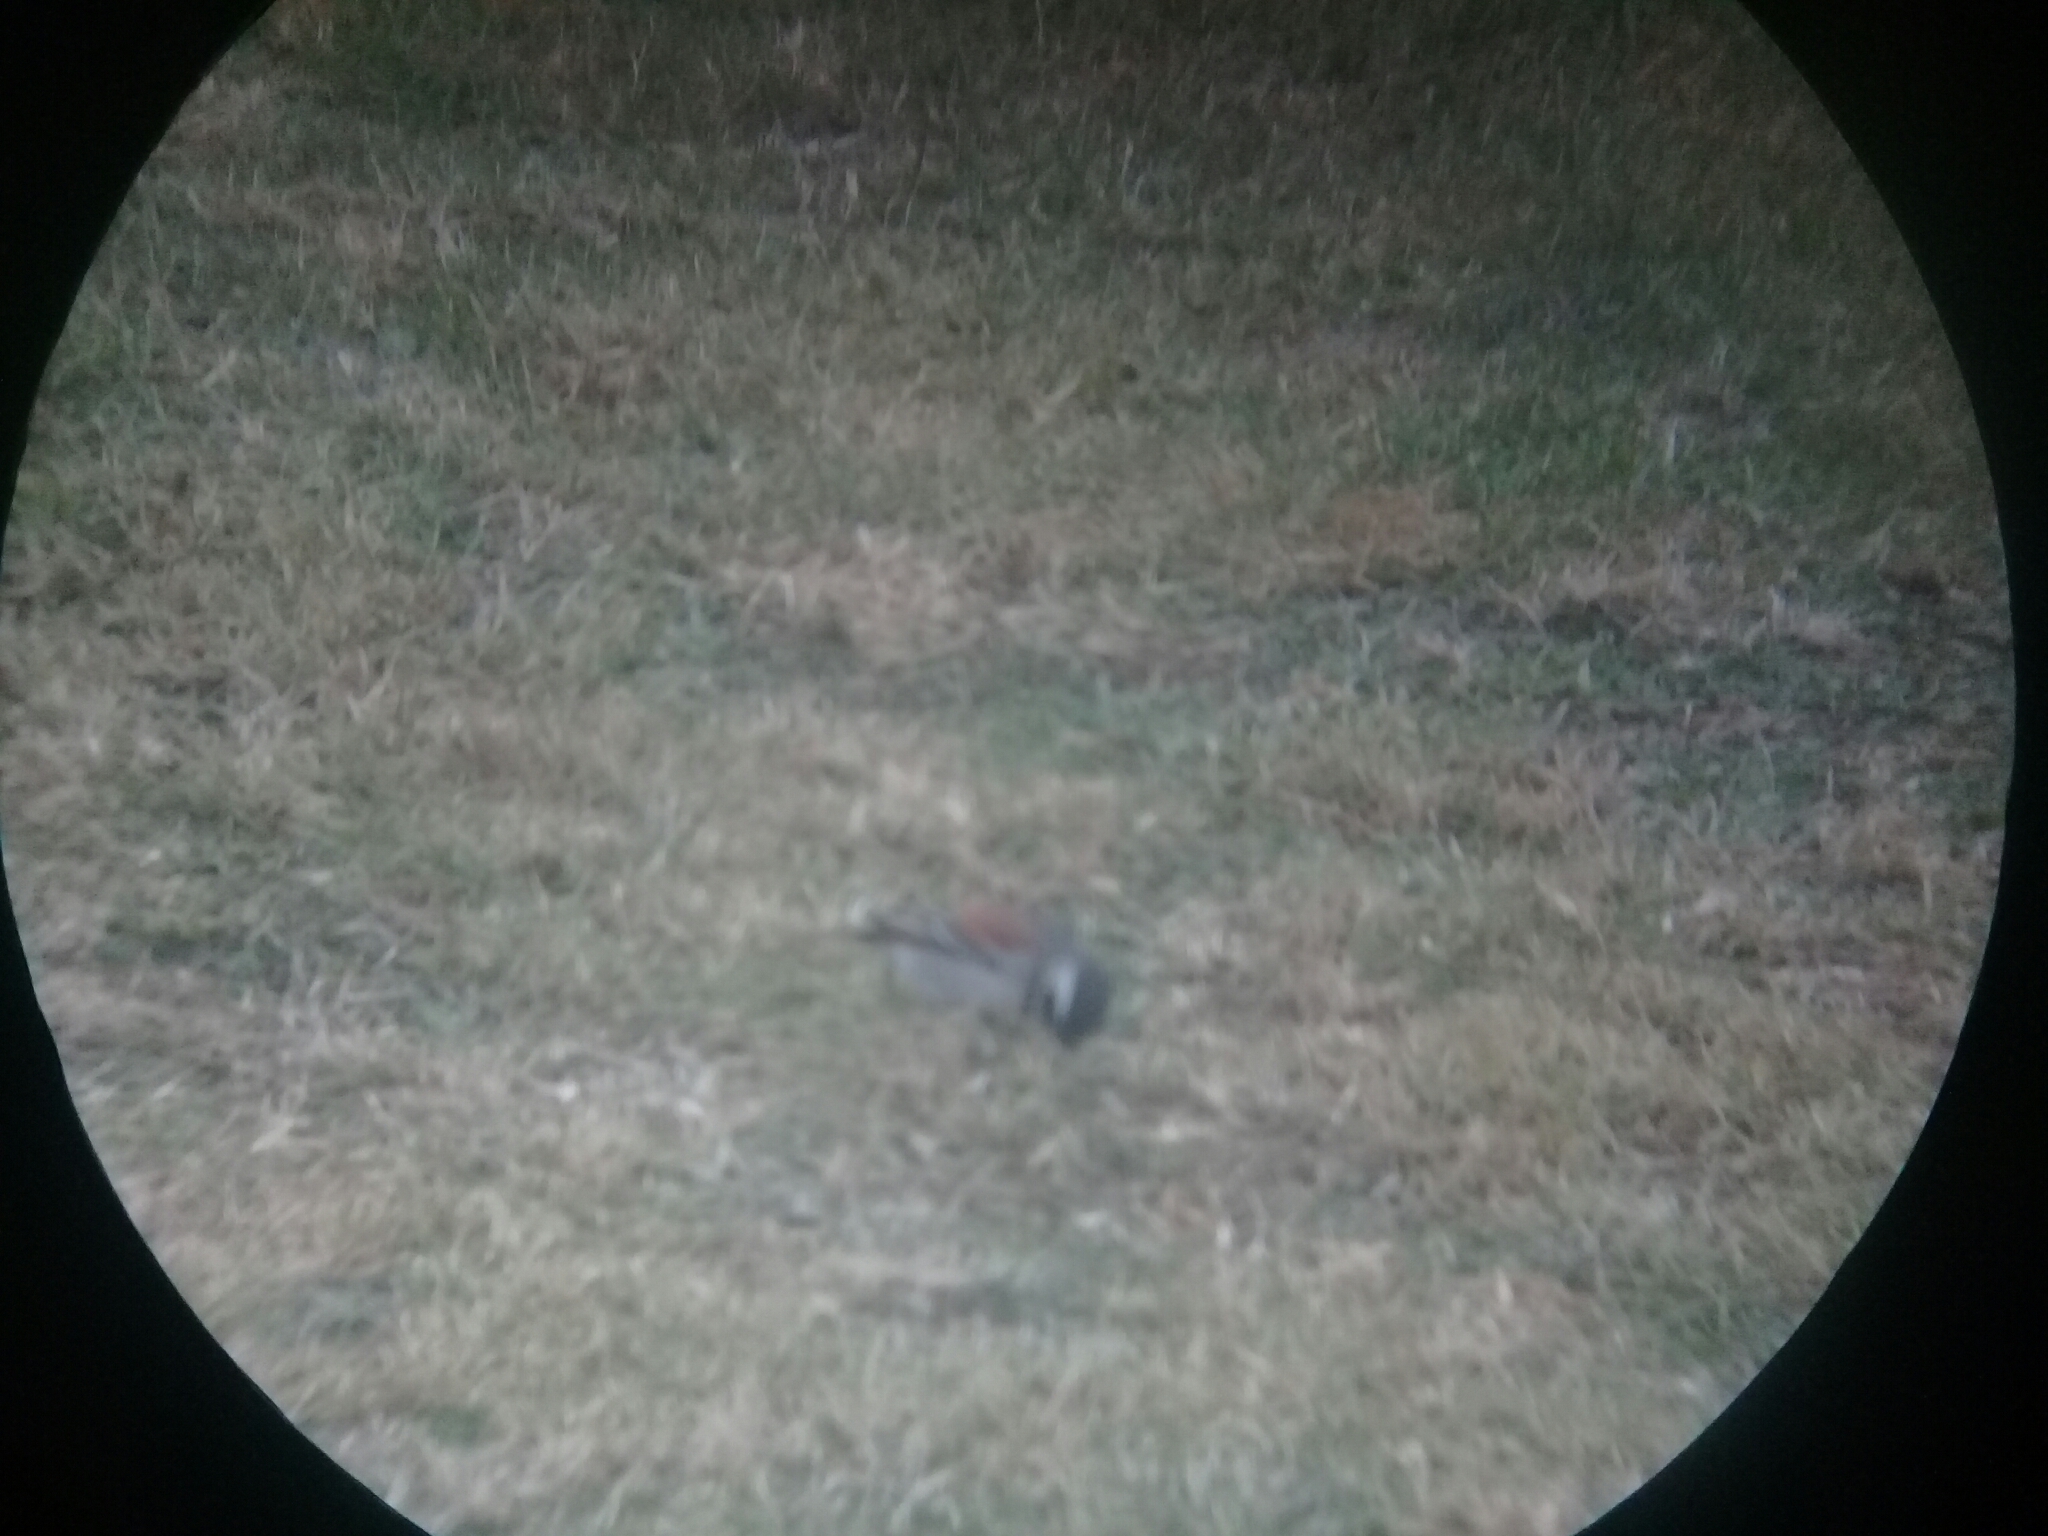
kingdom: Animalia
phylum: Chordata
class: Aves
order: Passeriformes
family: Passeridae
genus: Passer
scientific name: Passer melanurus
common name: Cape sparrow
